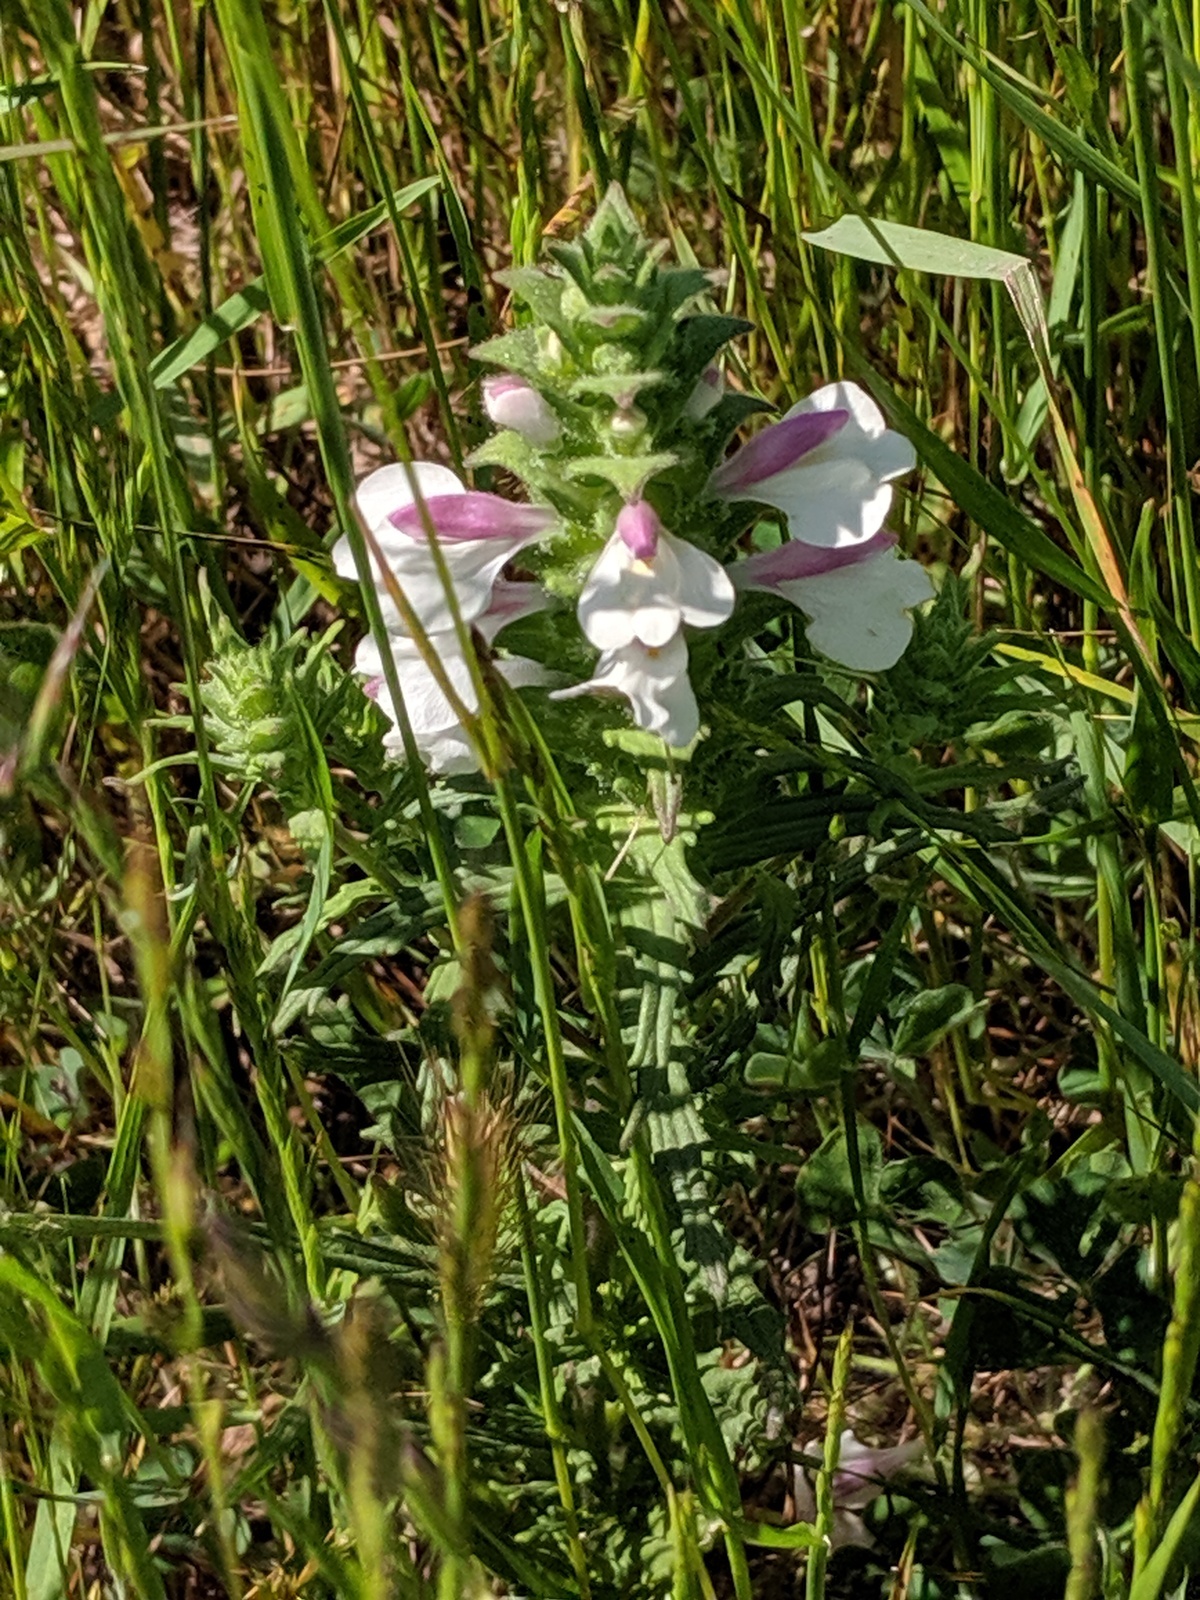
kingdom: Plantae
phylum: Tracheophyta
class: Magnoliopsida
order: Lamiales
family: Orobanchaceae
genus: Bellardia
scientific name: Bellardia trixago
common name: Mediterranean lineseed
